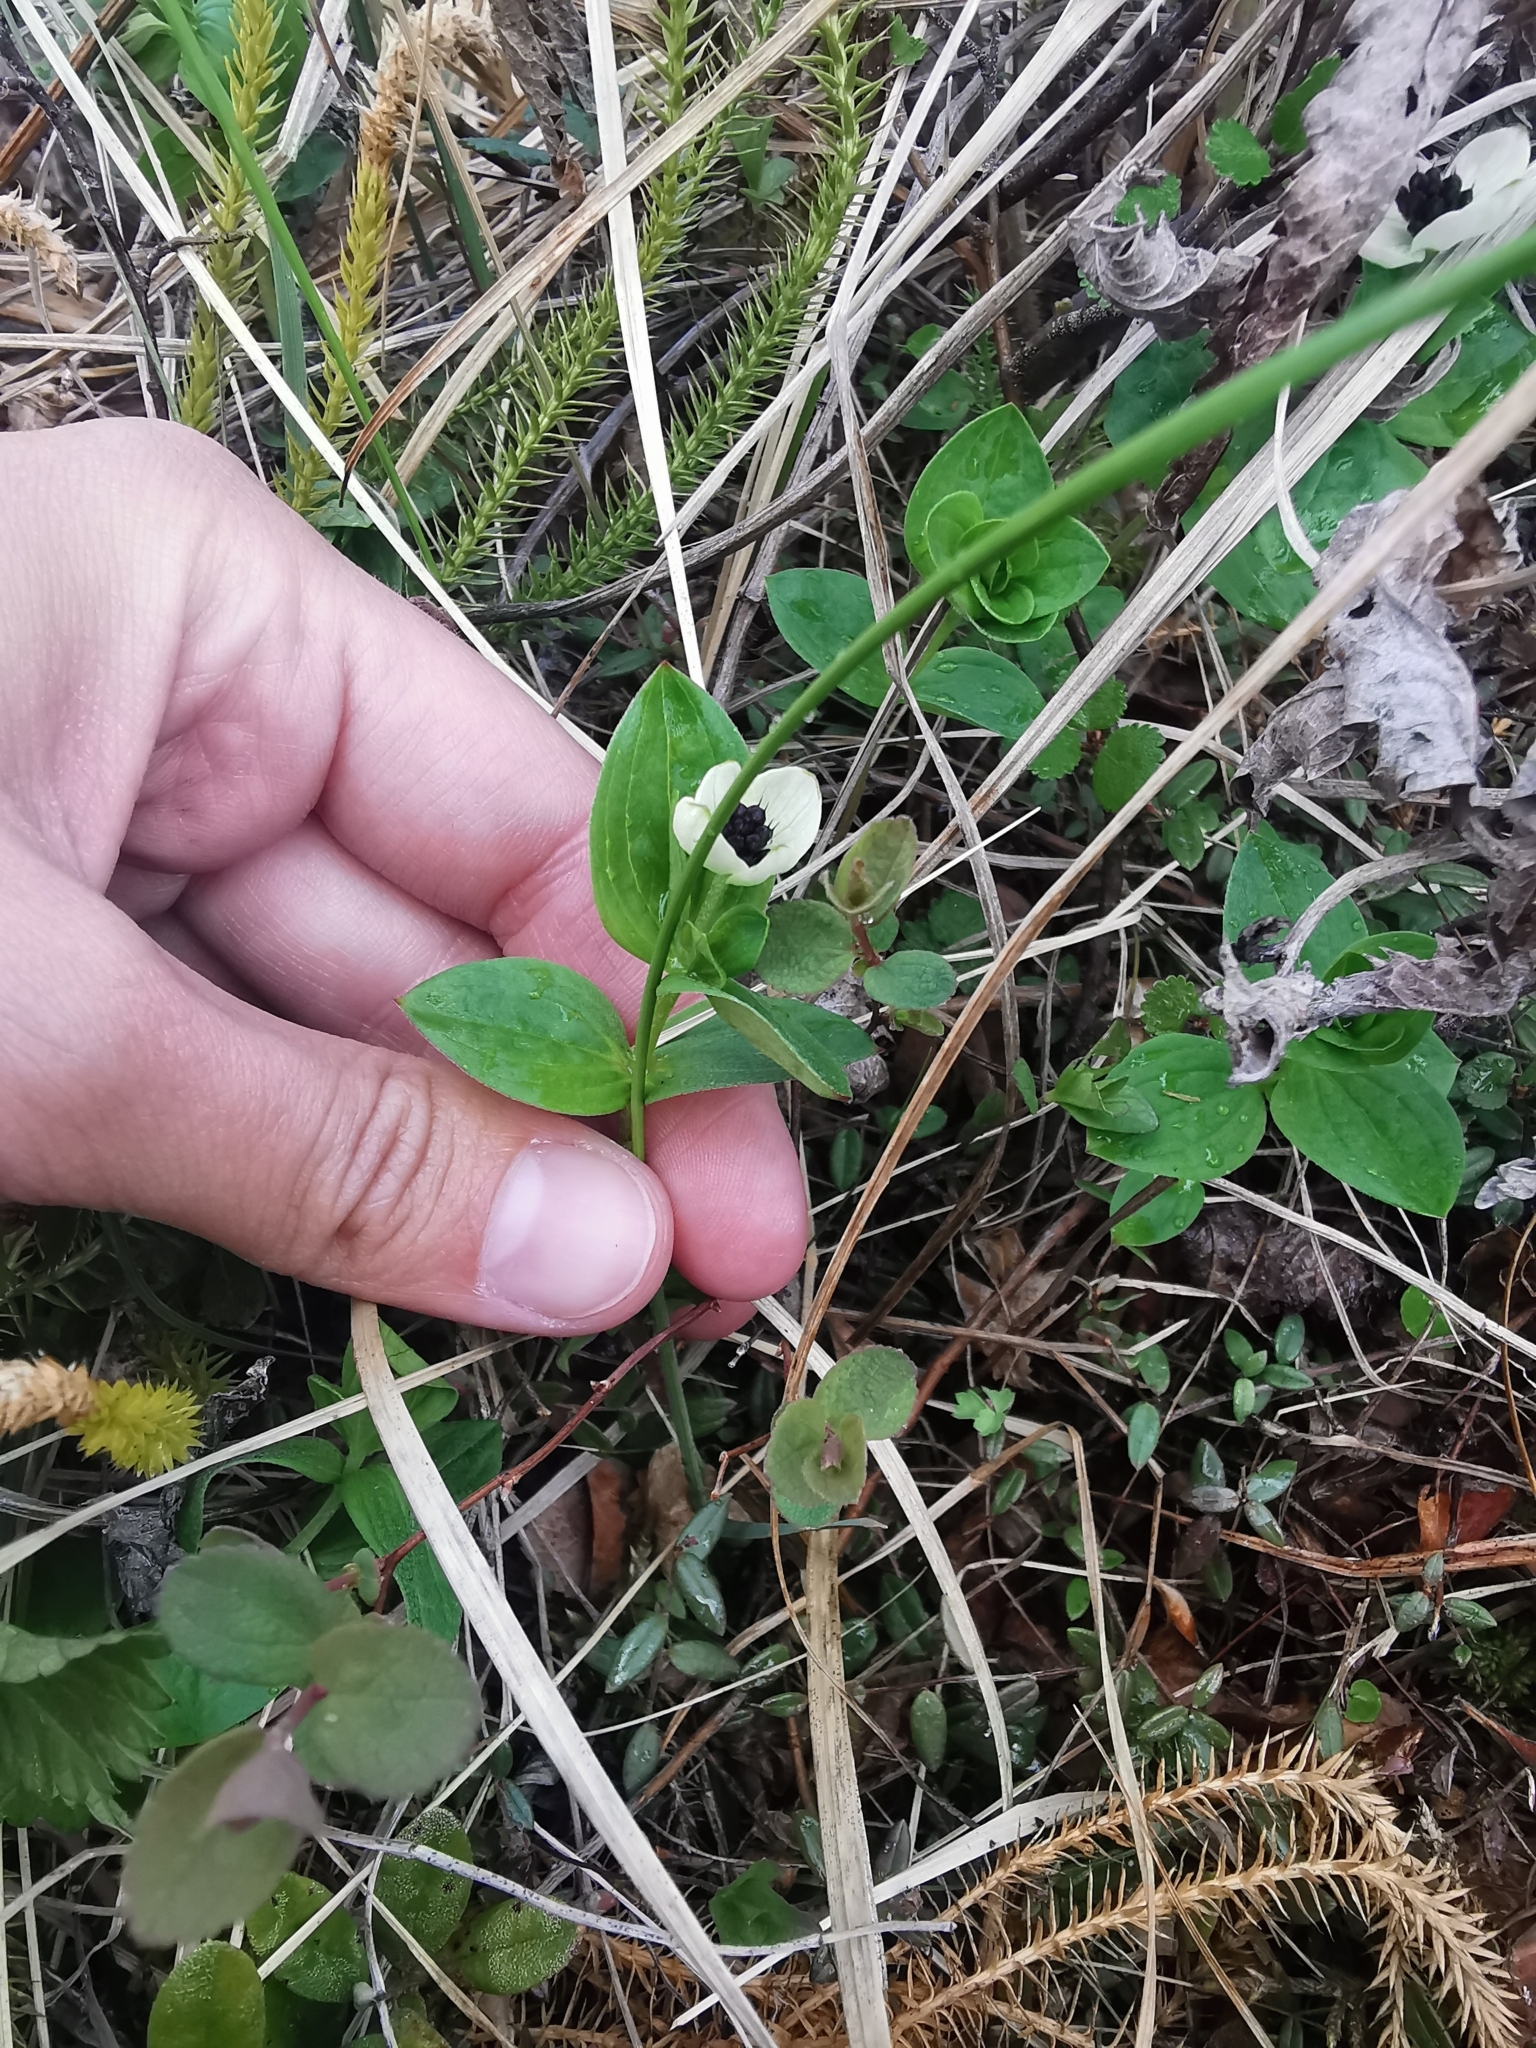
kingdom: Plantae
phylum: Tracheophyta
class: Magnoliopsida
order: Cornales
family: Cornaceae
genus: Cornus
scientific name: Cornus suecica
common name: Dwarf cornel
